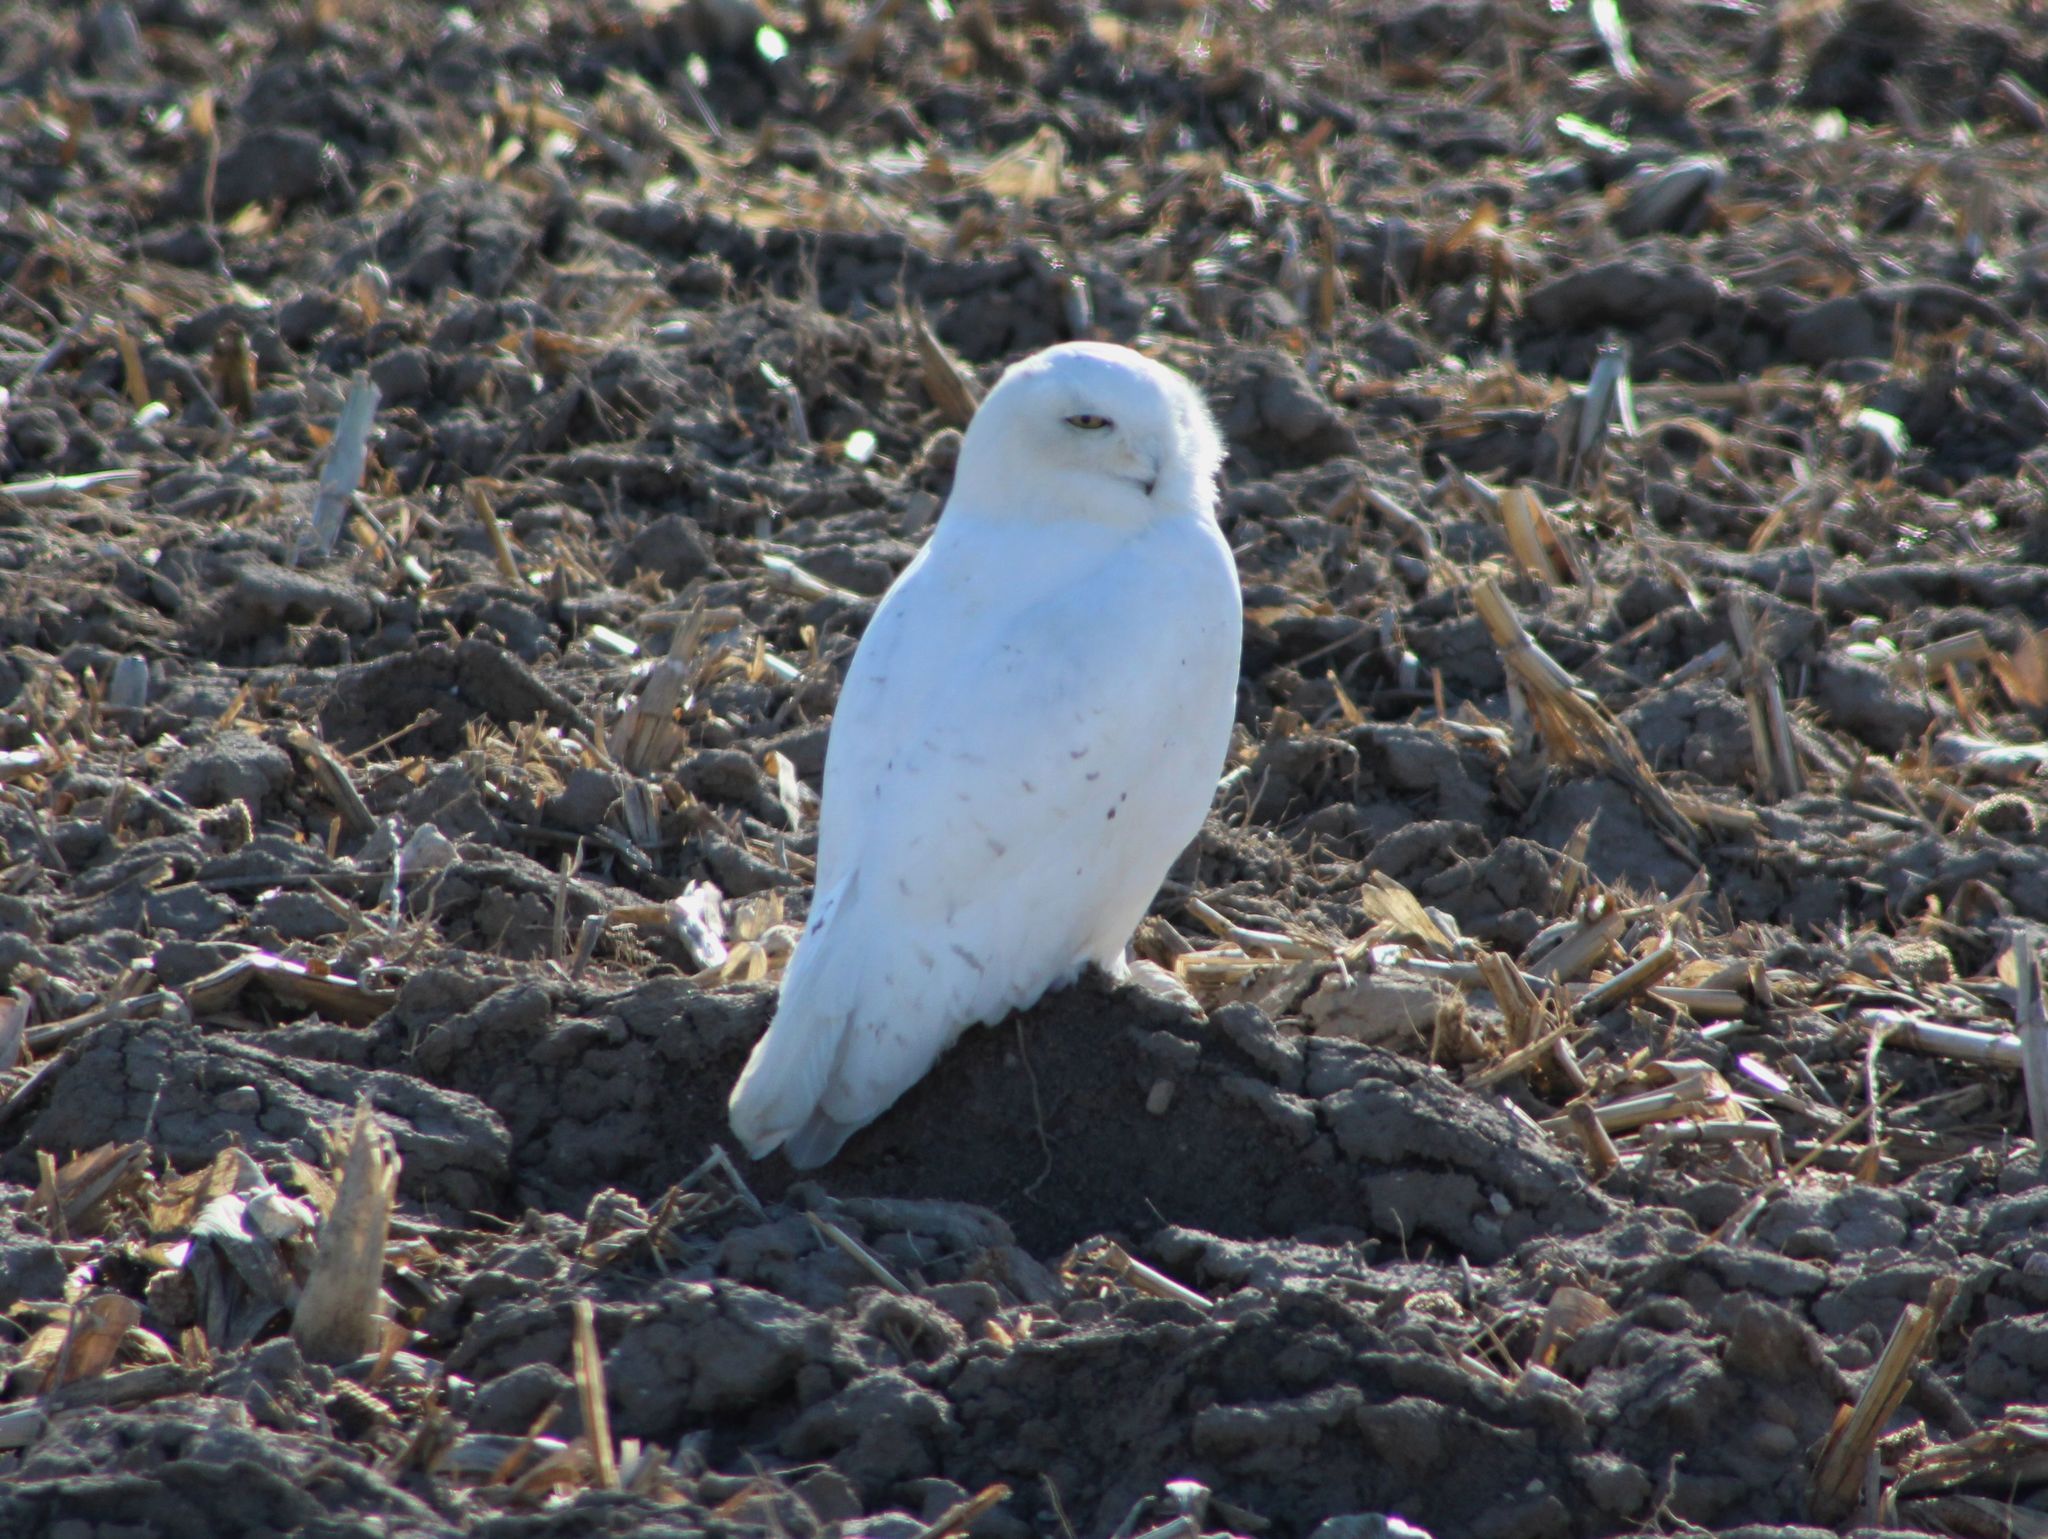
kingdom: Animalia
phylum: Chordata
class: Aves
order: Strigiformes
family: Strigidae
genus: Bubo
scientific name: Bubo scandiacus
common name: Snowy owl
